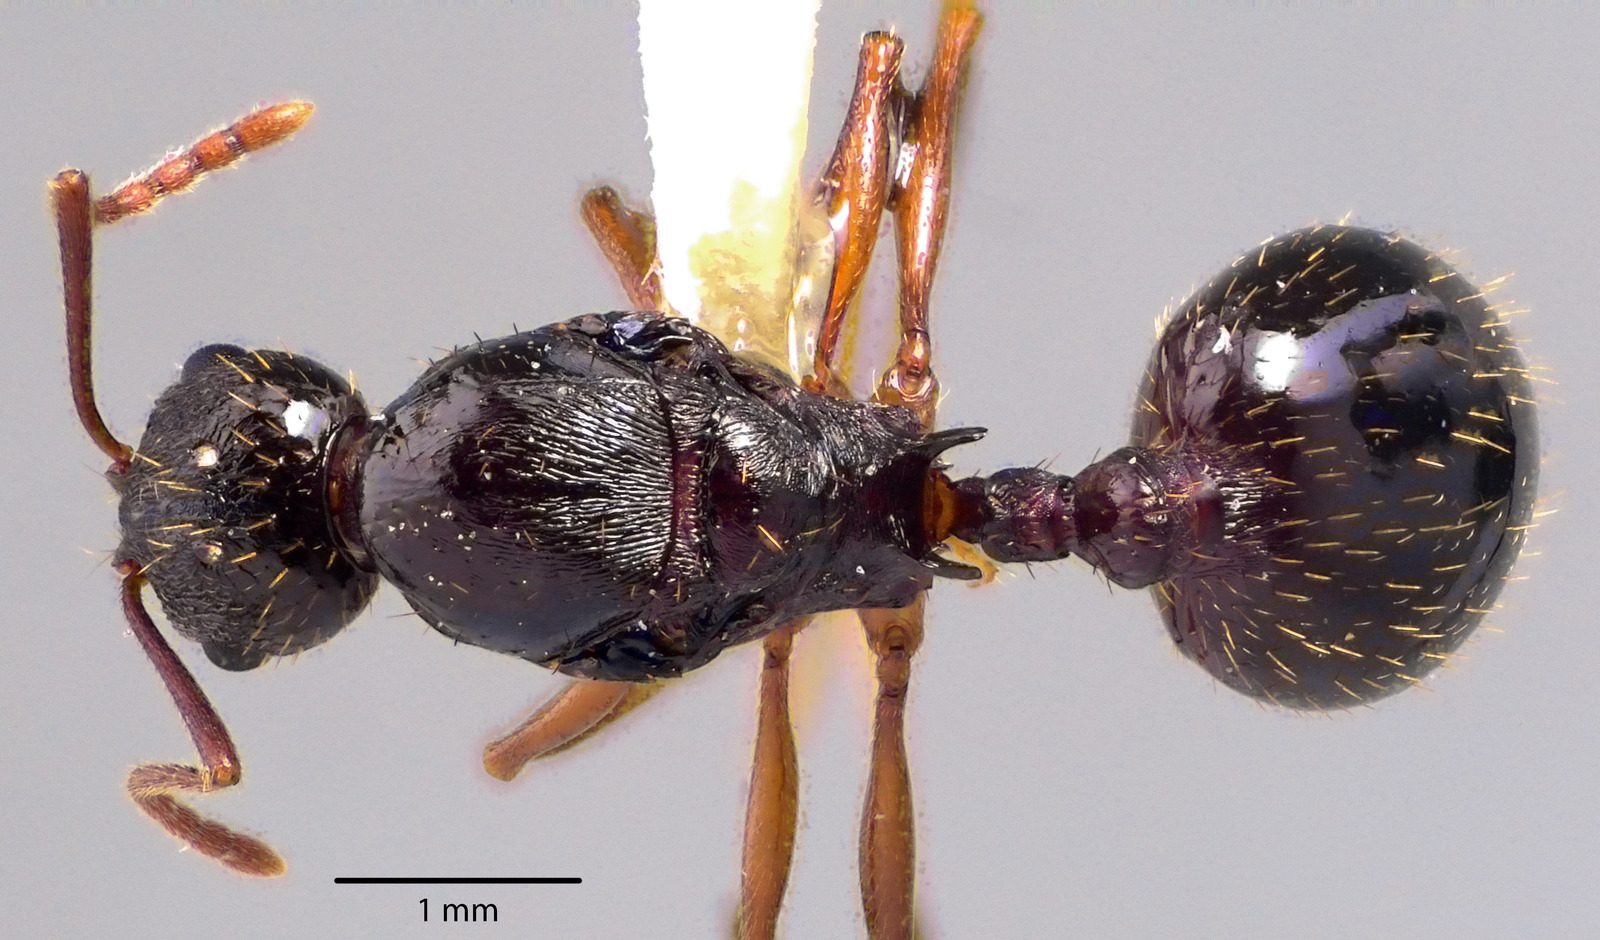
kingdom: Animalia
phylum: Arthropoda
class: Insecta
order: Hymenoptera
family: Formicidae
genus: Aphaenogaster
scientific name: Aphaenogaster picea
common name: Pitch-black collared ant
